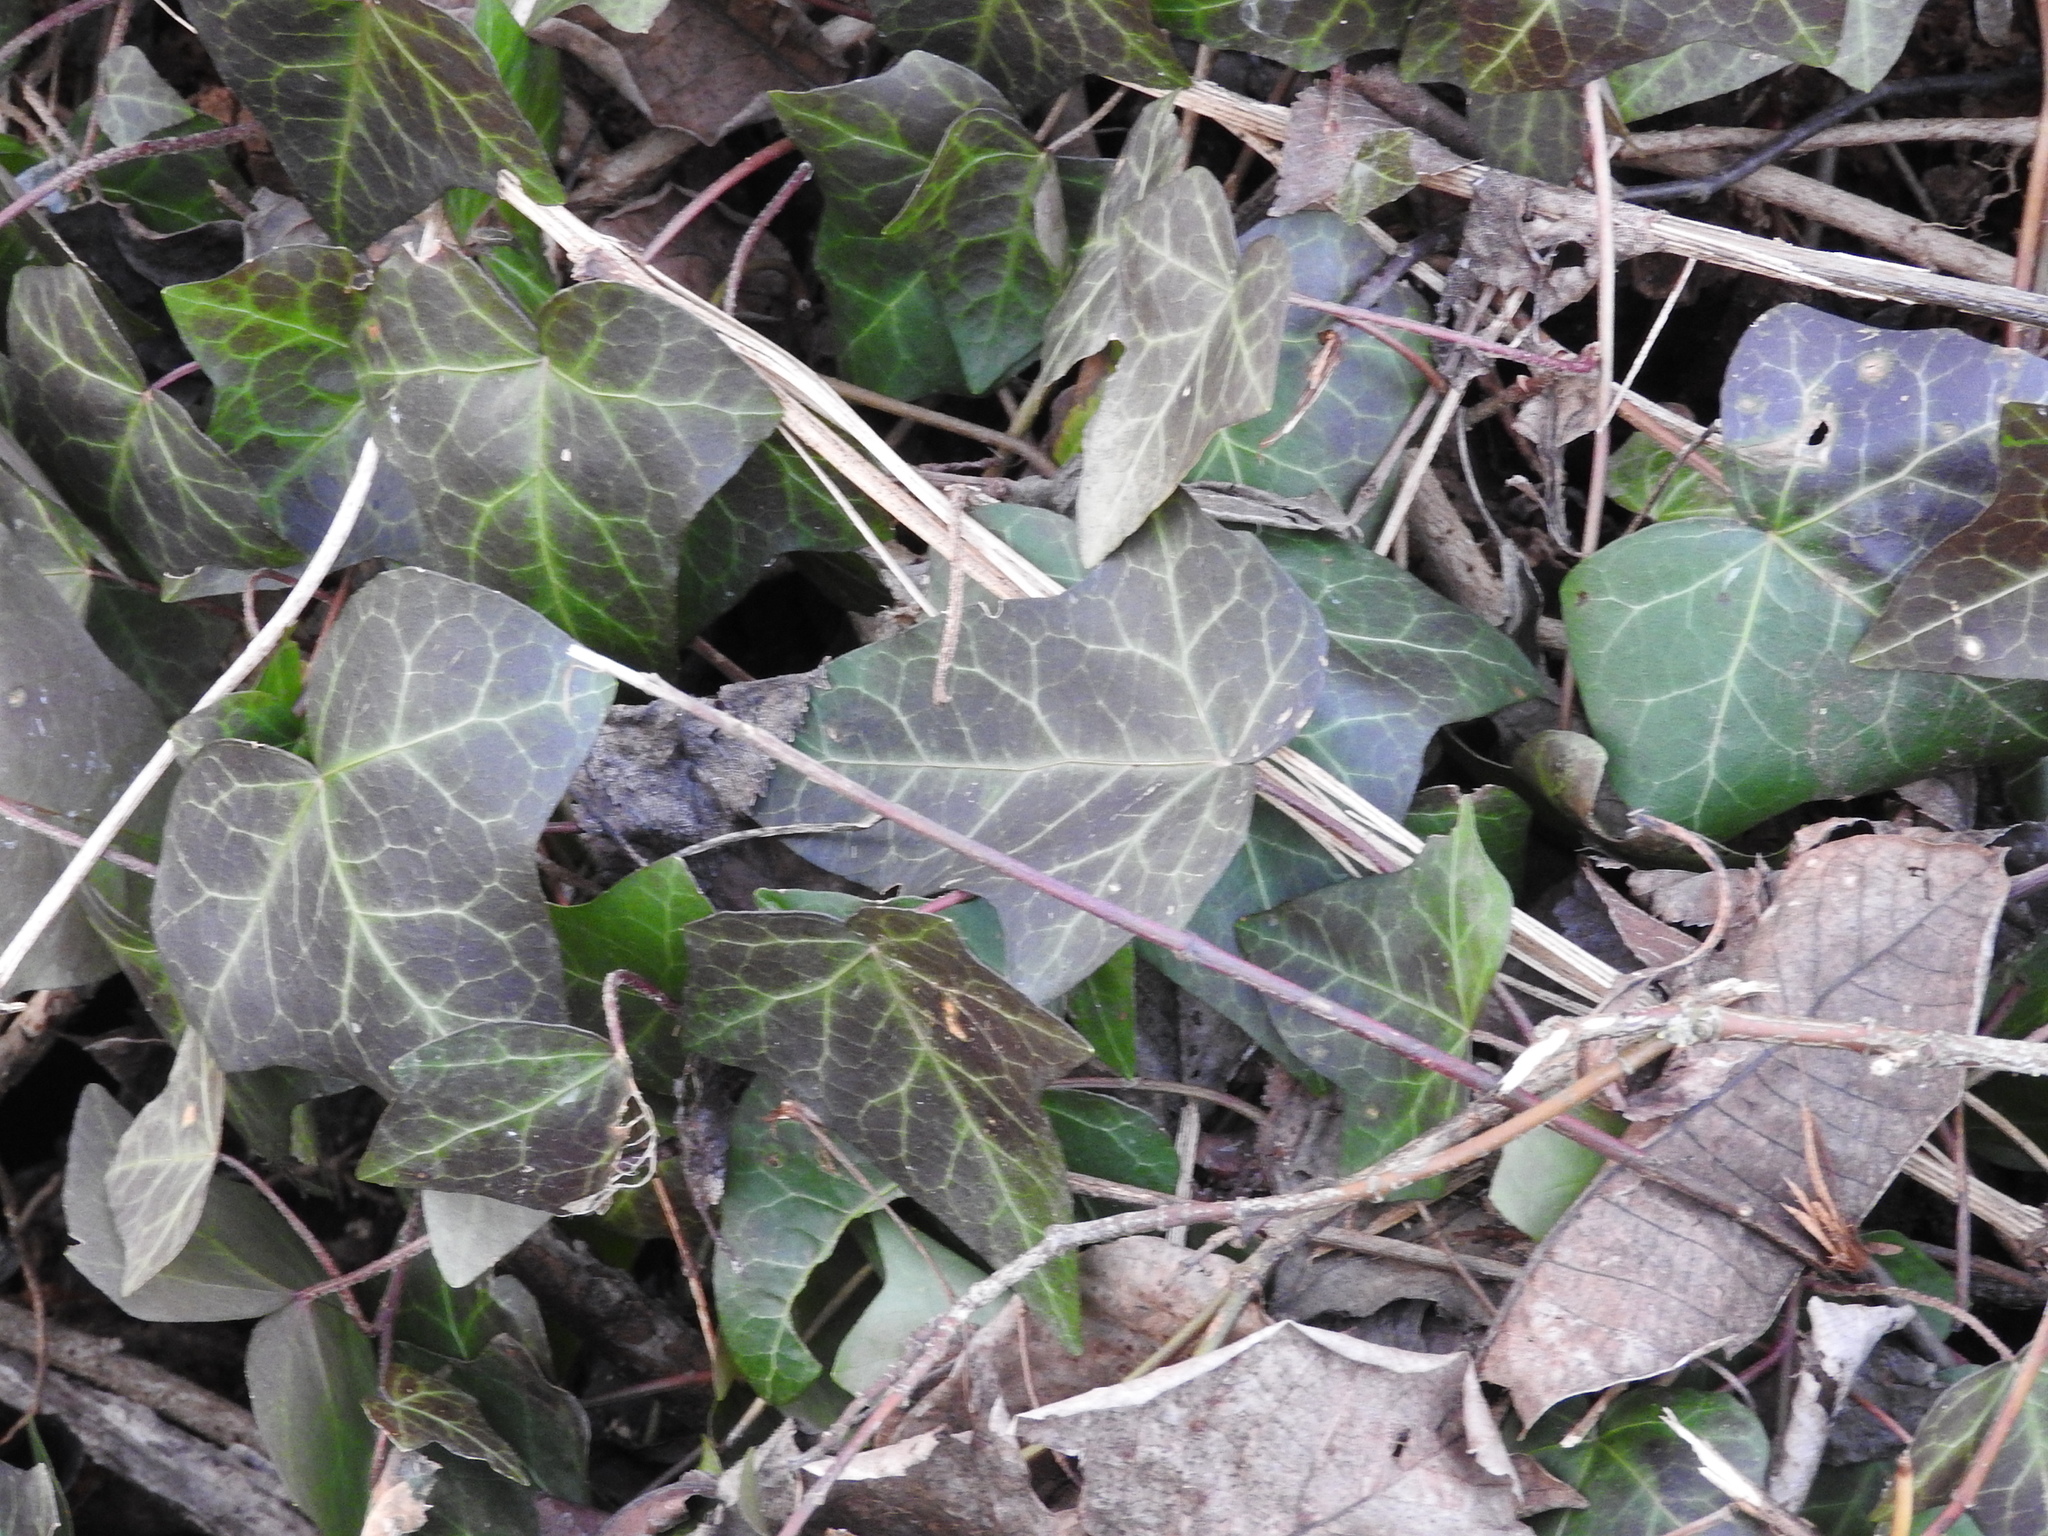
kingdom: Plantae
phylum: Tracheophyta
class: Magnoliopsida
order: Apiales
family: Araliaceae
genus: Hedera
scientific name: Hedera helix
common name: Ivy
